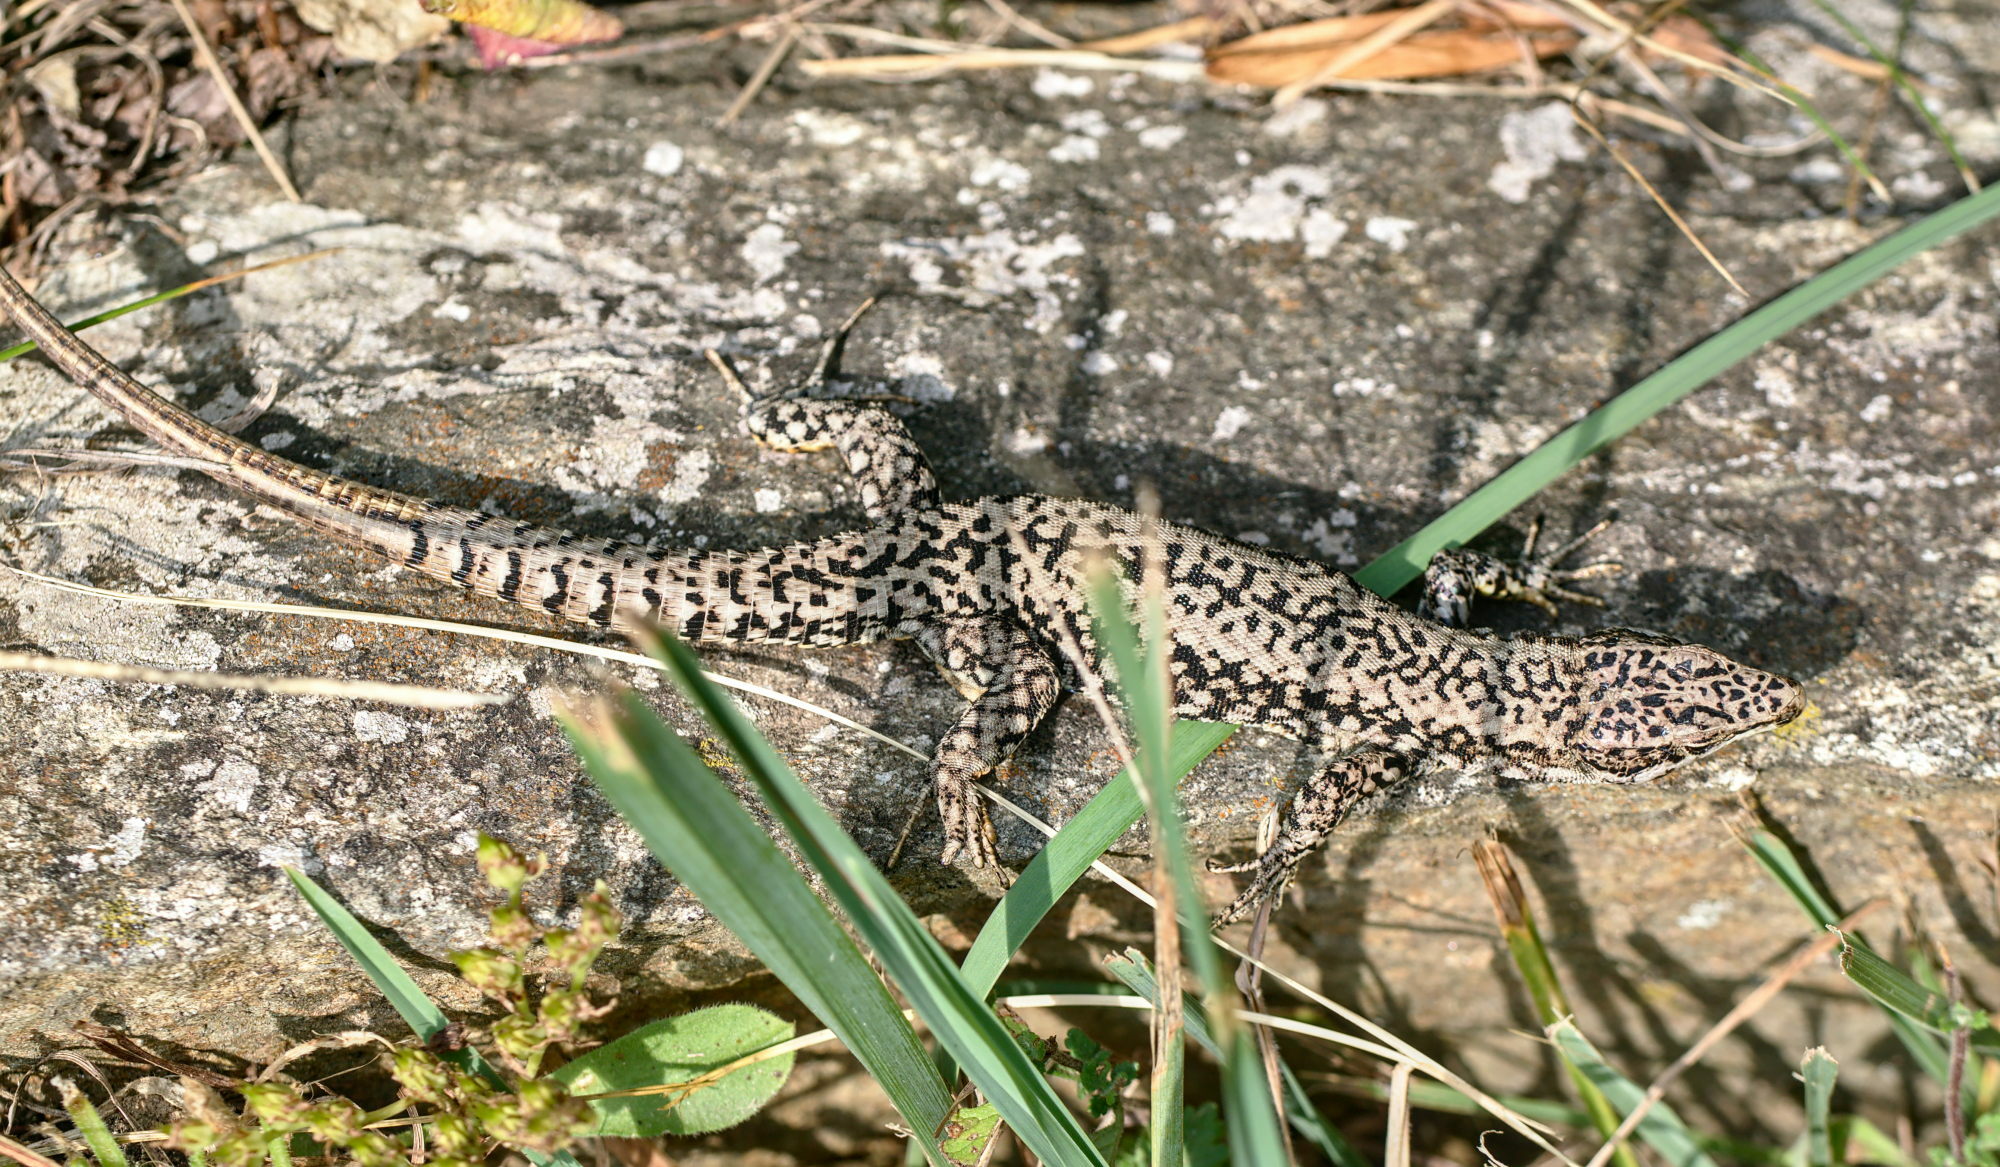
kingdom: Animalia
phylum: Chordata
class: Squamata
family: Lacertidae
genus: Podarcis
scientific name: Podarcis muralis
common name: Common wall lizard
